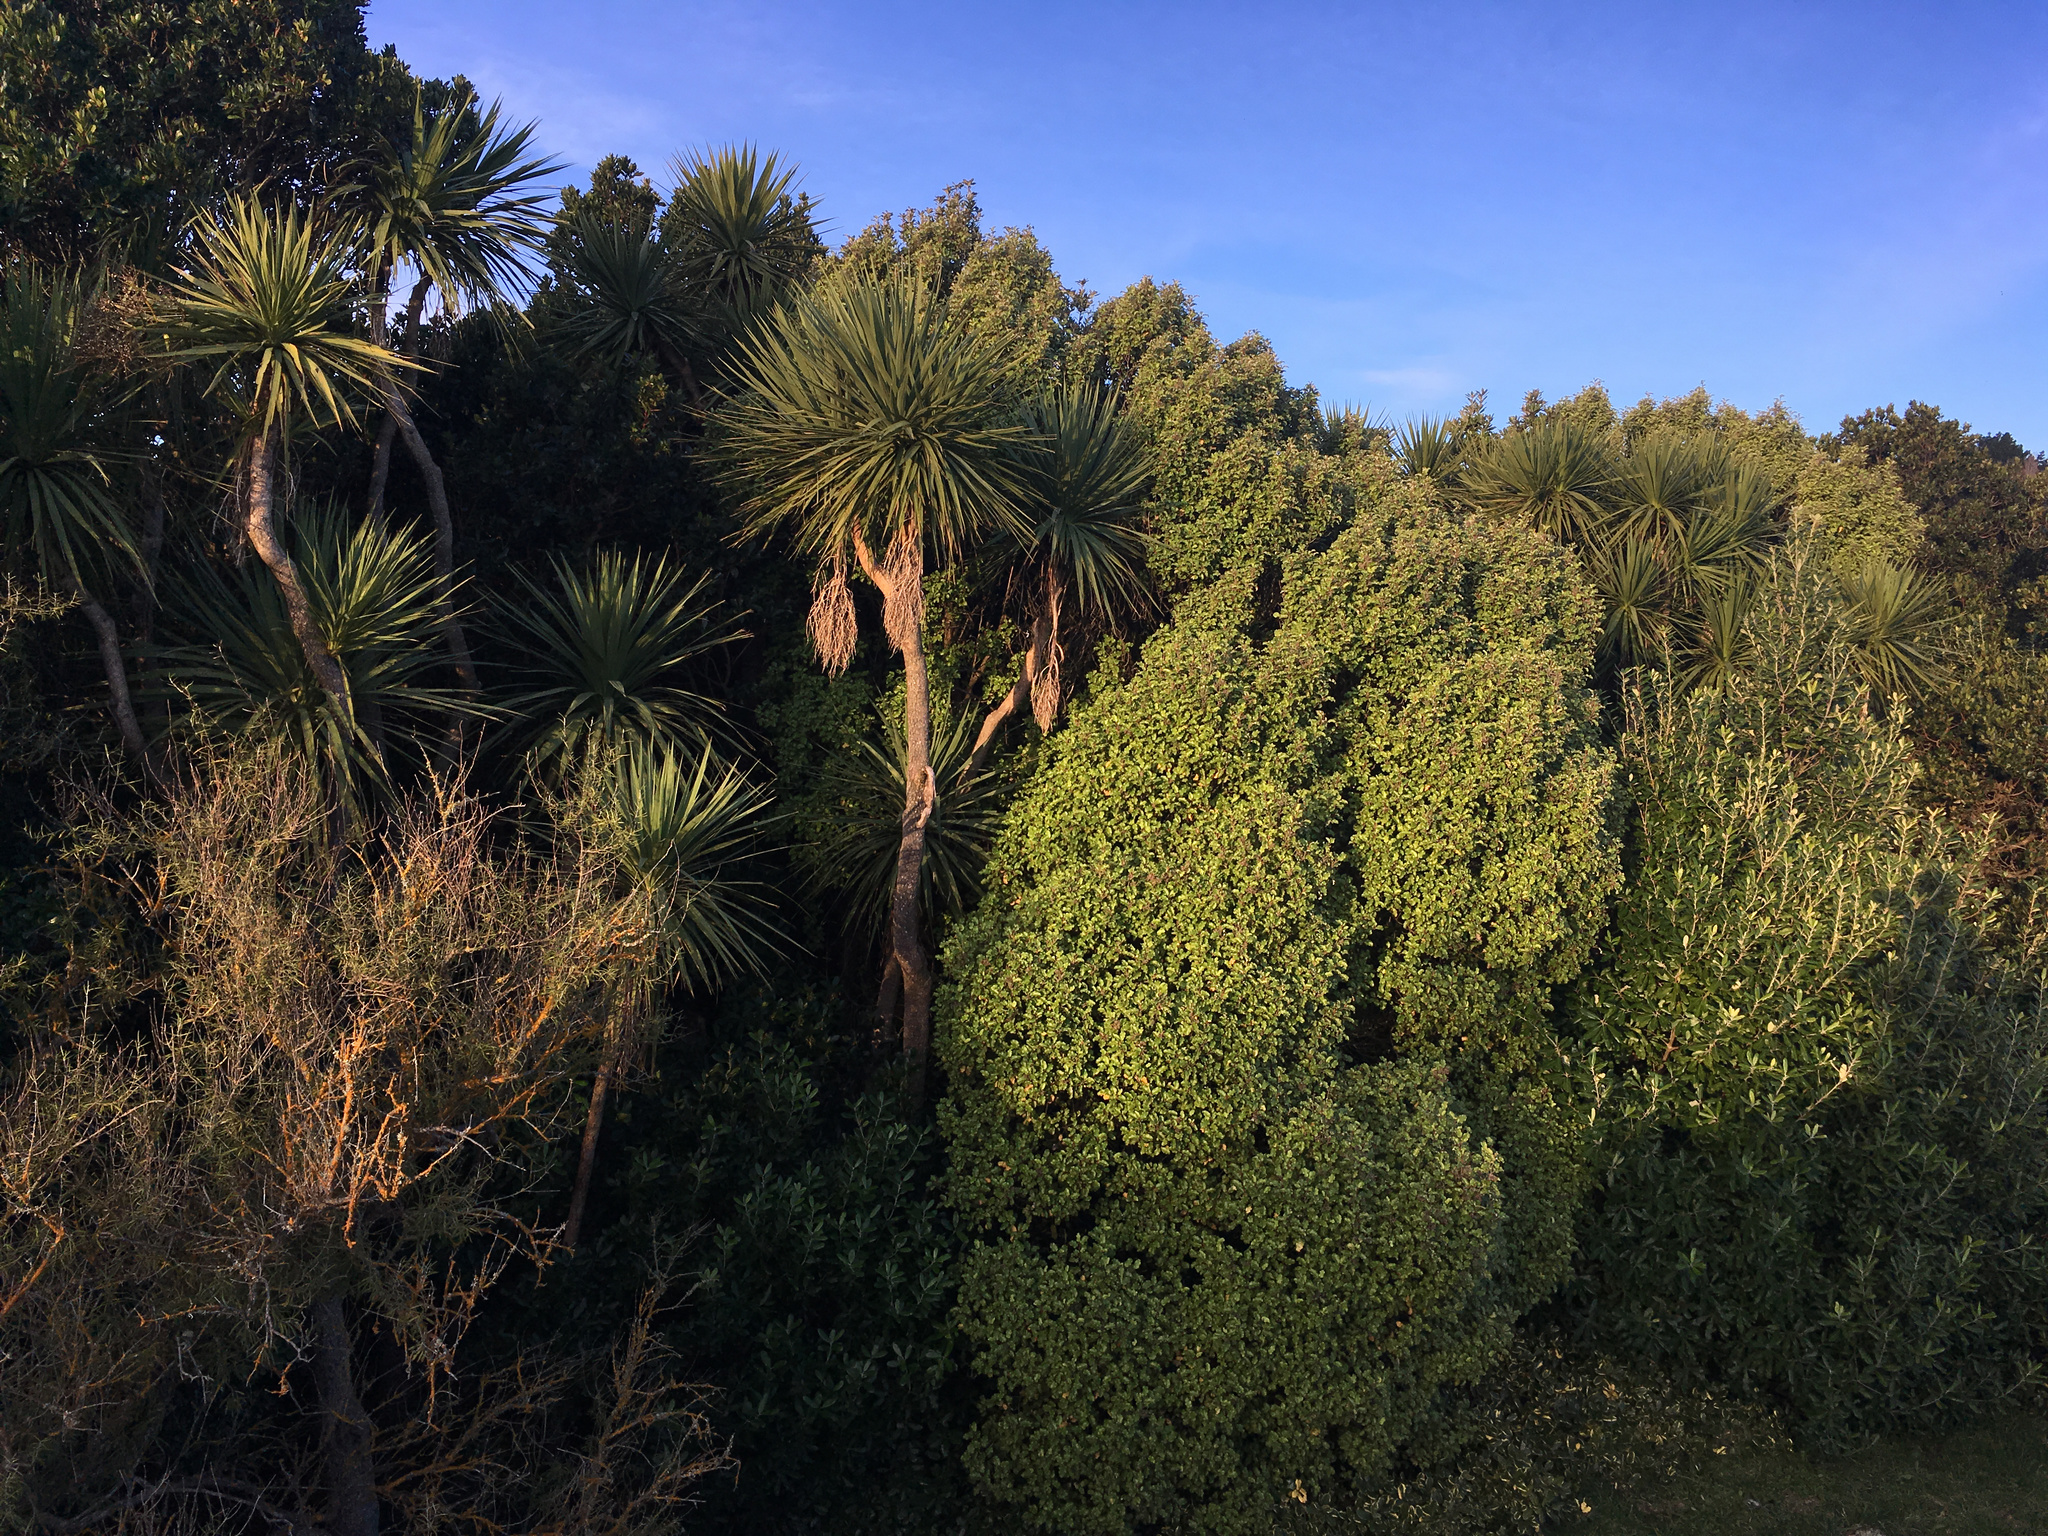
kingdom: Plantae
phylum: Tracheophyta
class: Liliopsida
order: Asparagales
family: Asparagaceae
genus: Cordyline
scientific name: Cordyline australis
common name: Cabbage-palm
